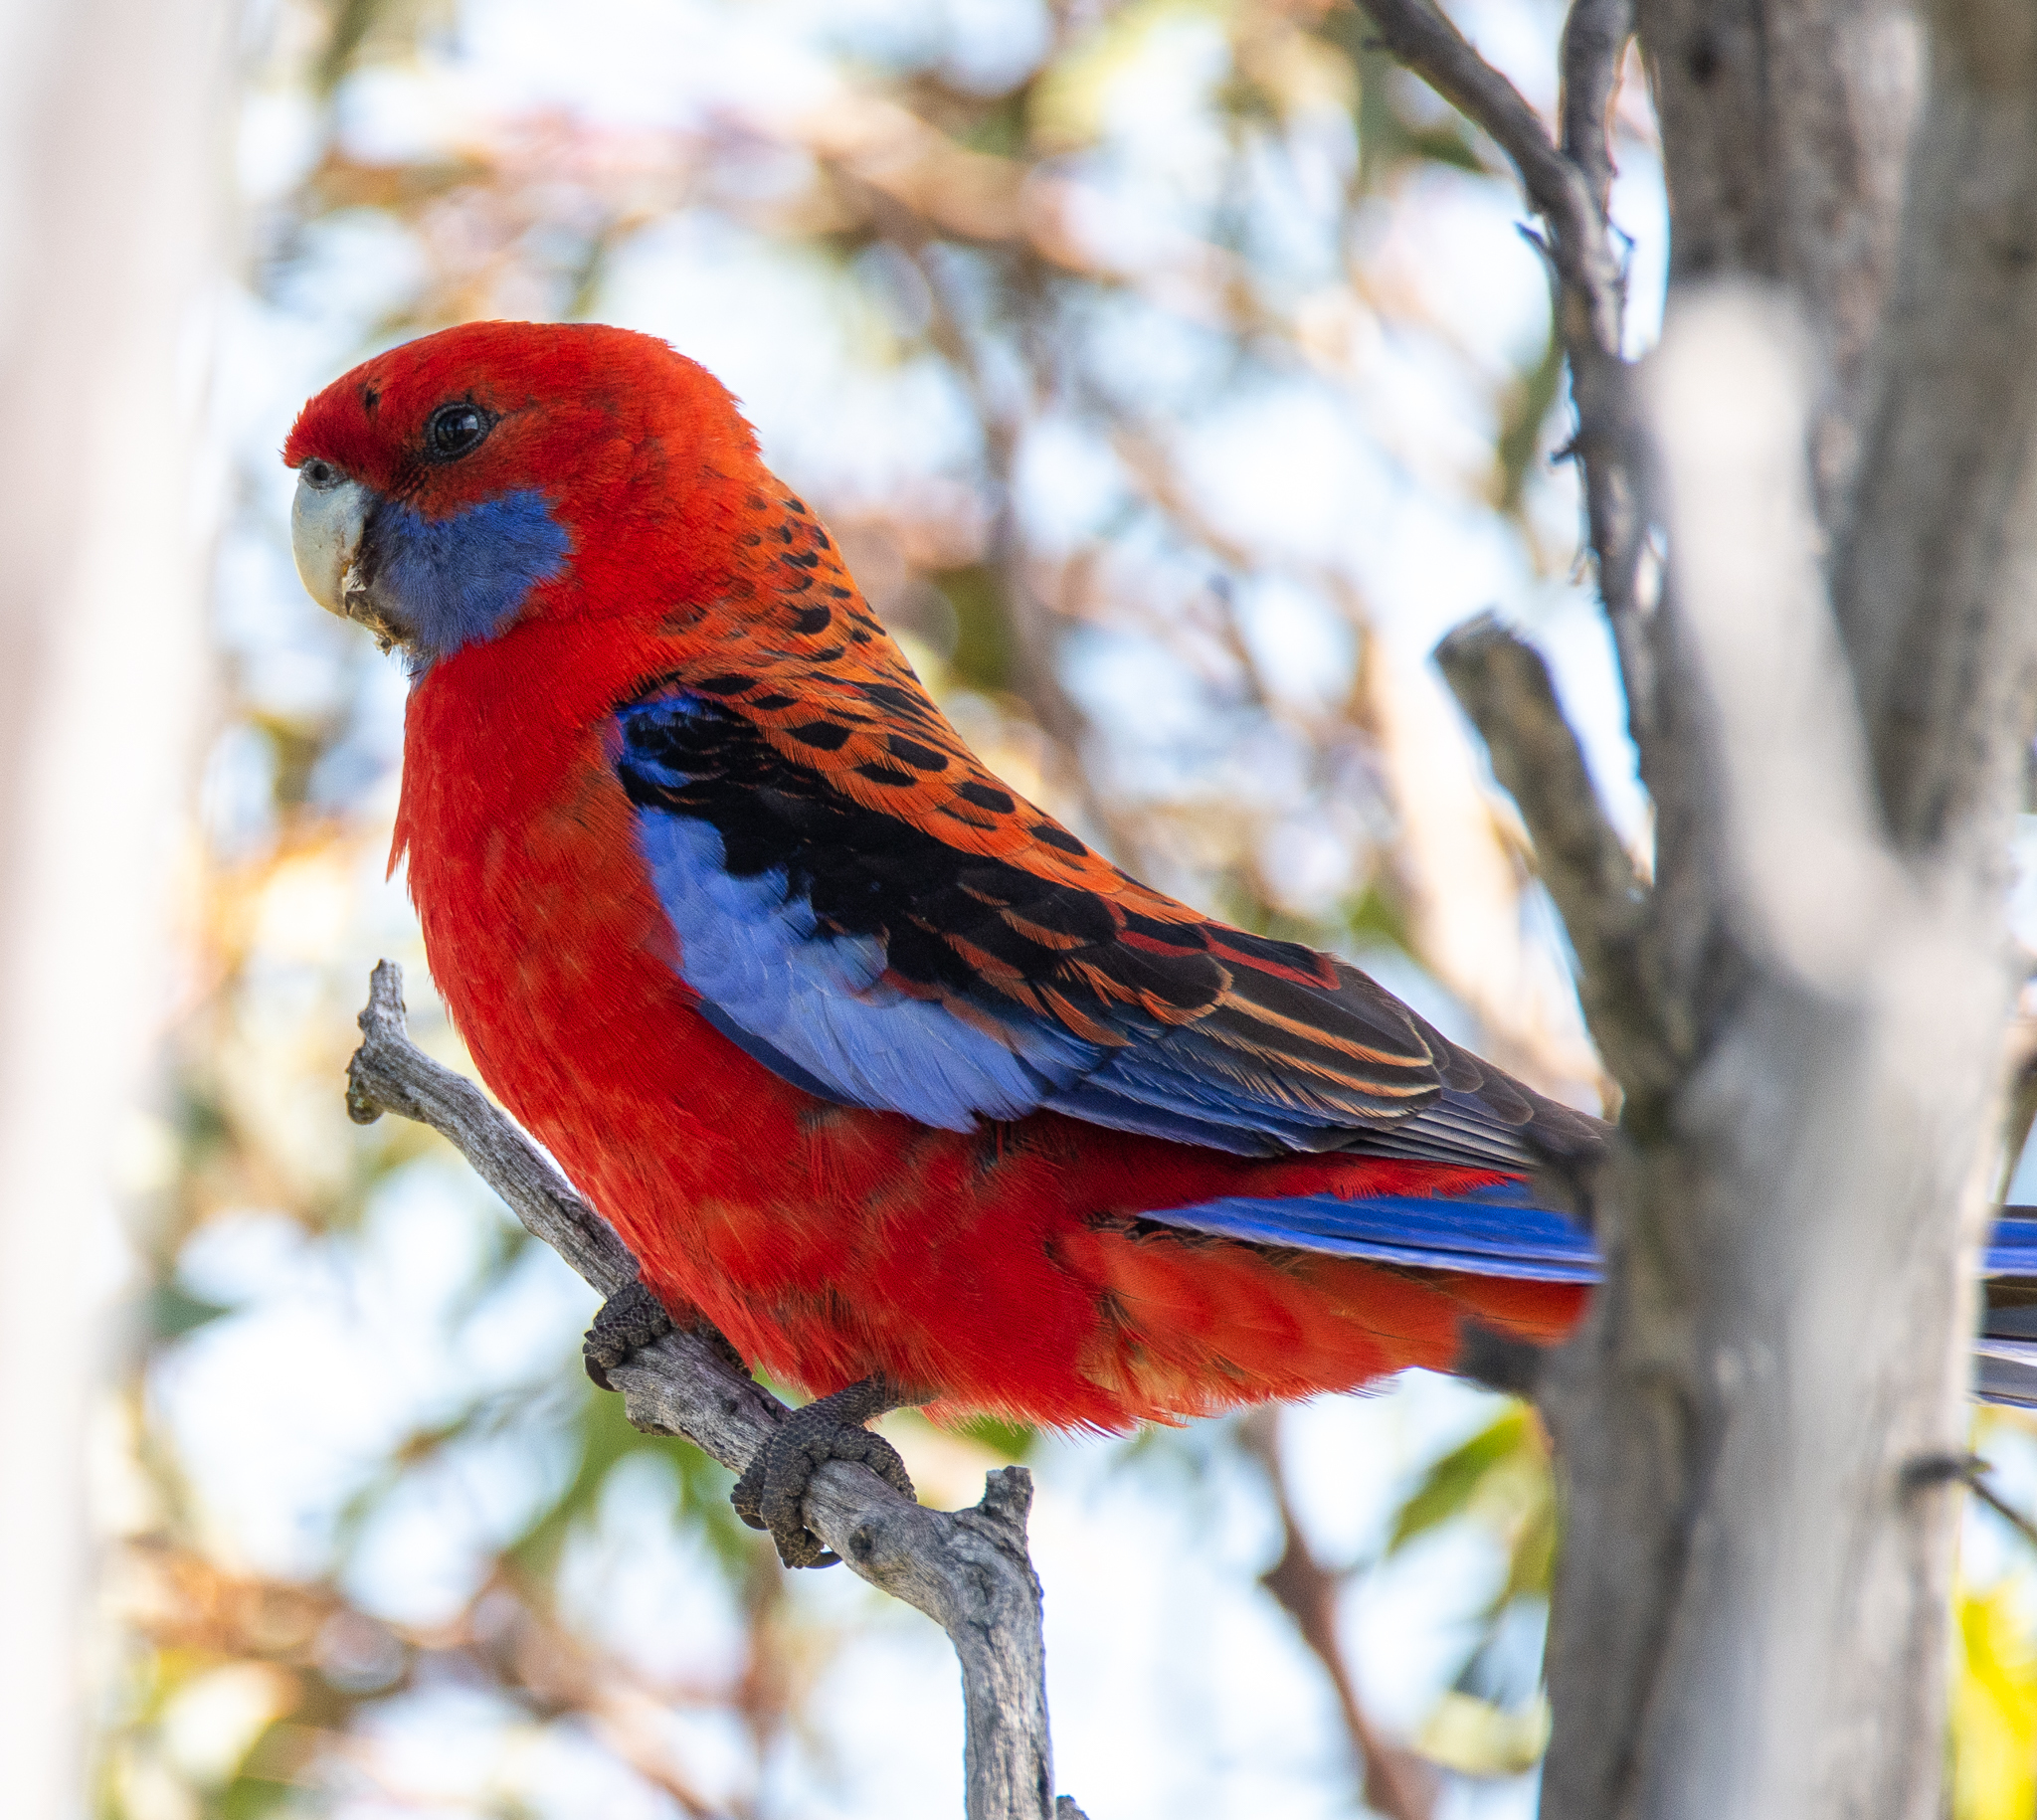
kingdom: Animalia
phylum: Chordata
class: Aves
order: Psittaciformes
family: Psittacidae
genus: Platycercus
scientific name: Platycercus elegans
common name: Crimson rosella
